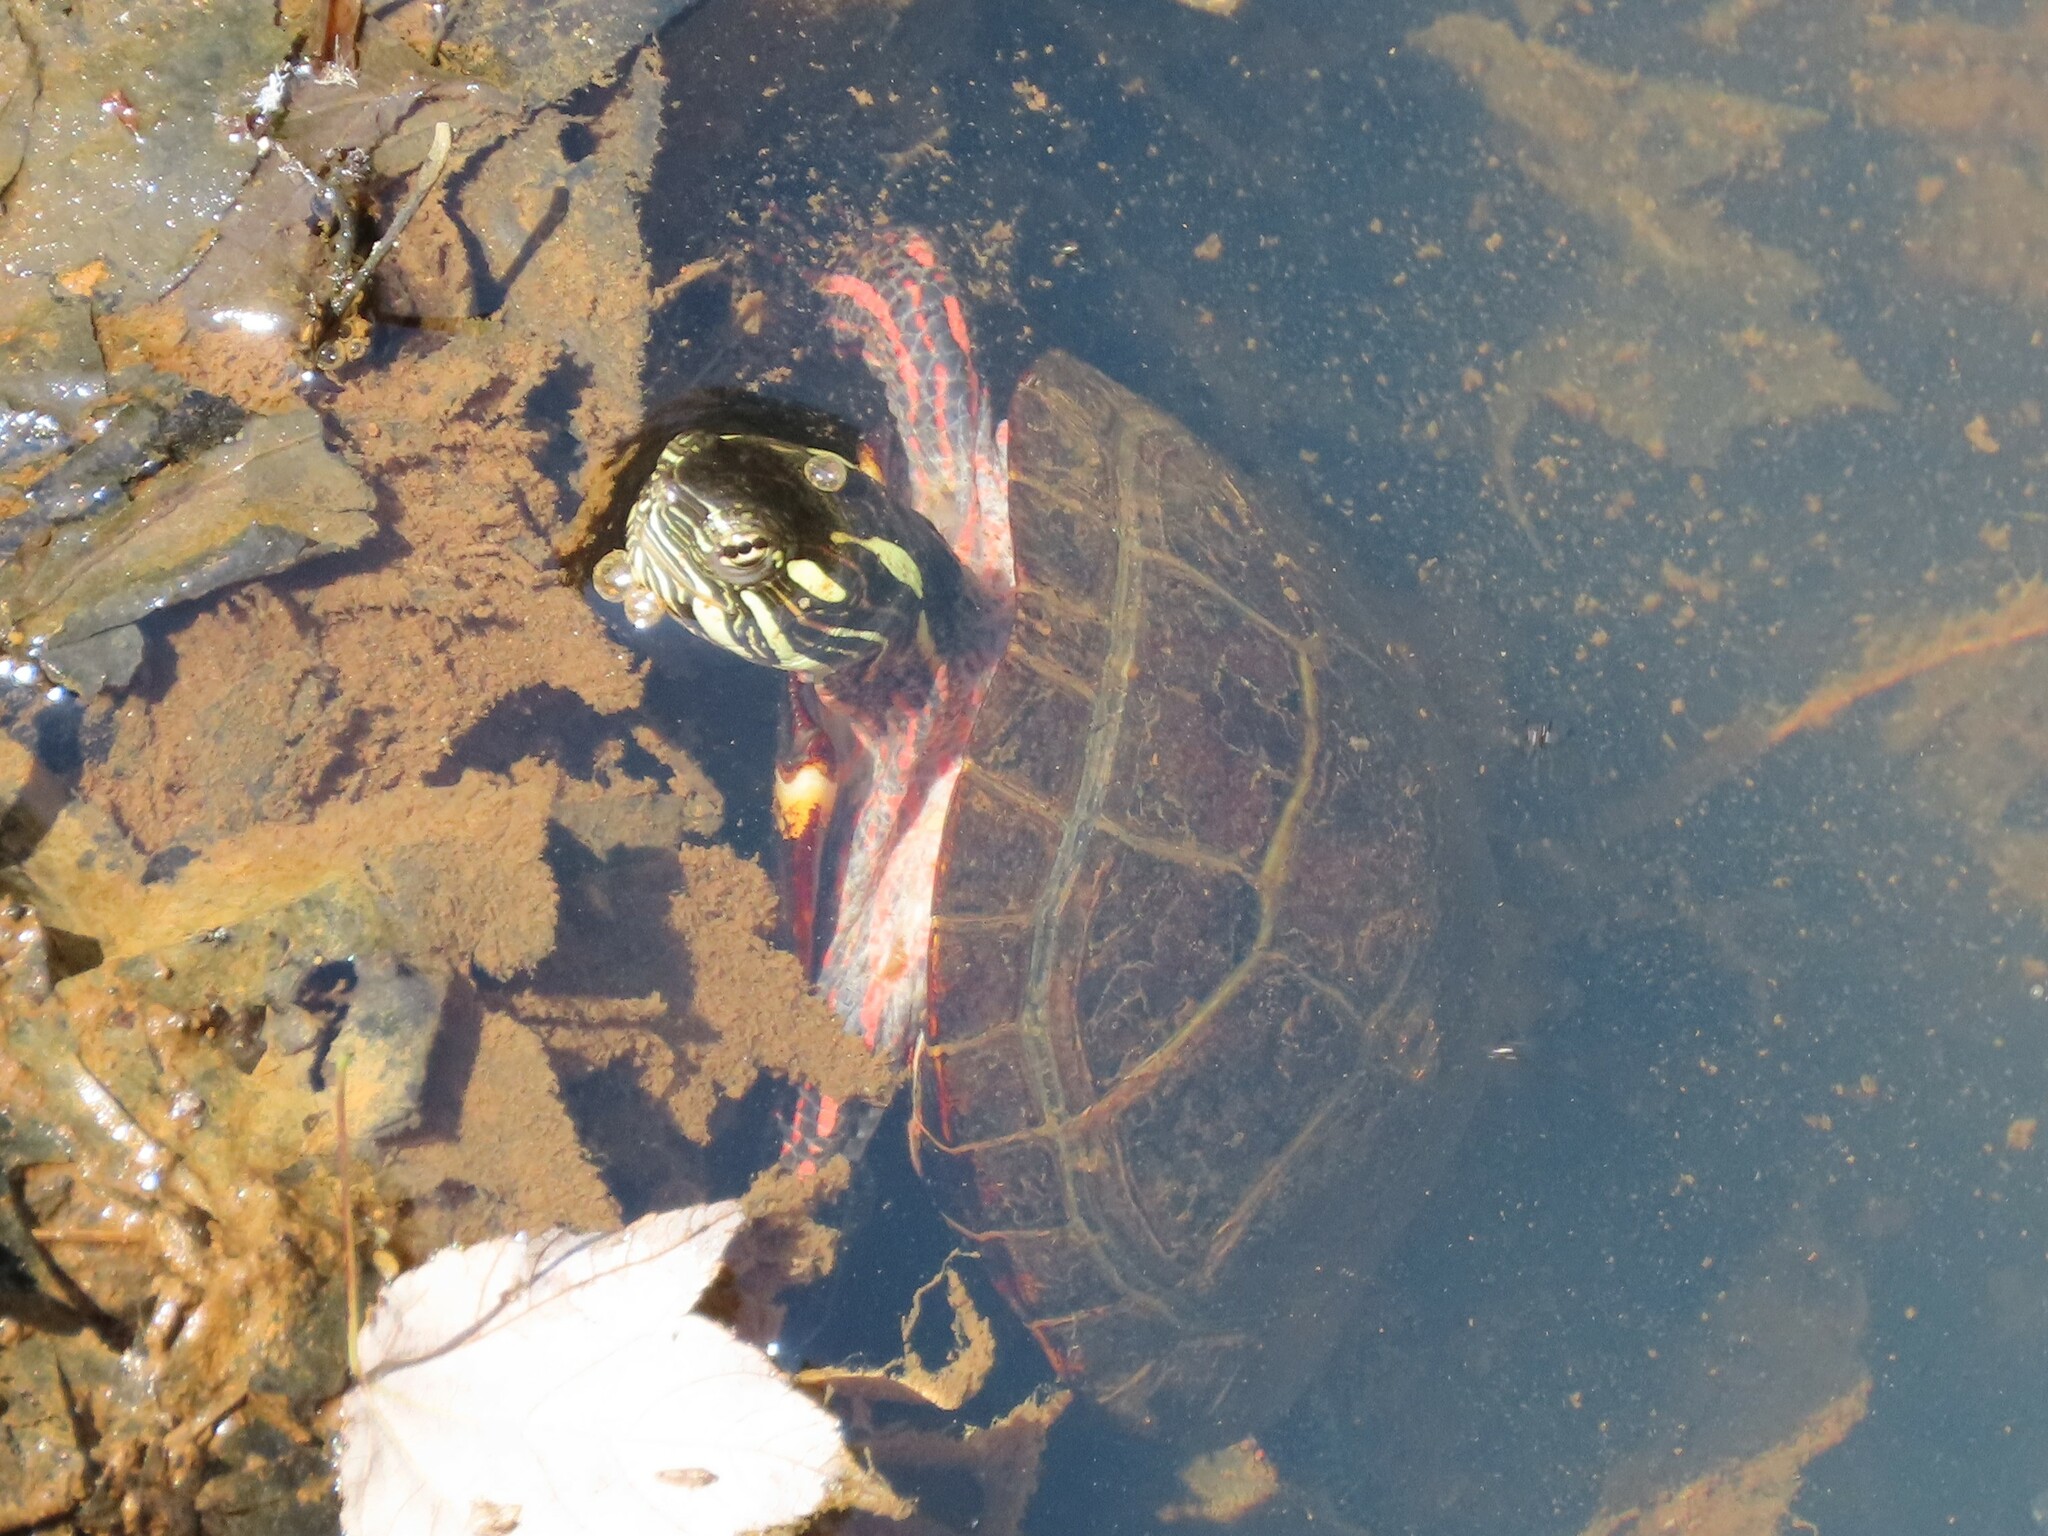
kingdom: Animalia
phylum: Chordata
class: Testudines
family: Emydidae
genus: Chrysemys
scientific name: Chrysemys picta
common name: Painted turtle
